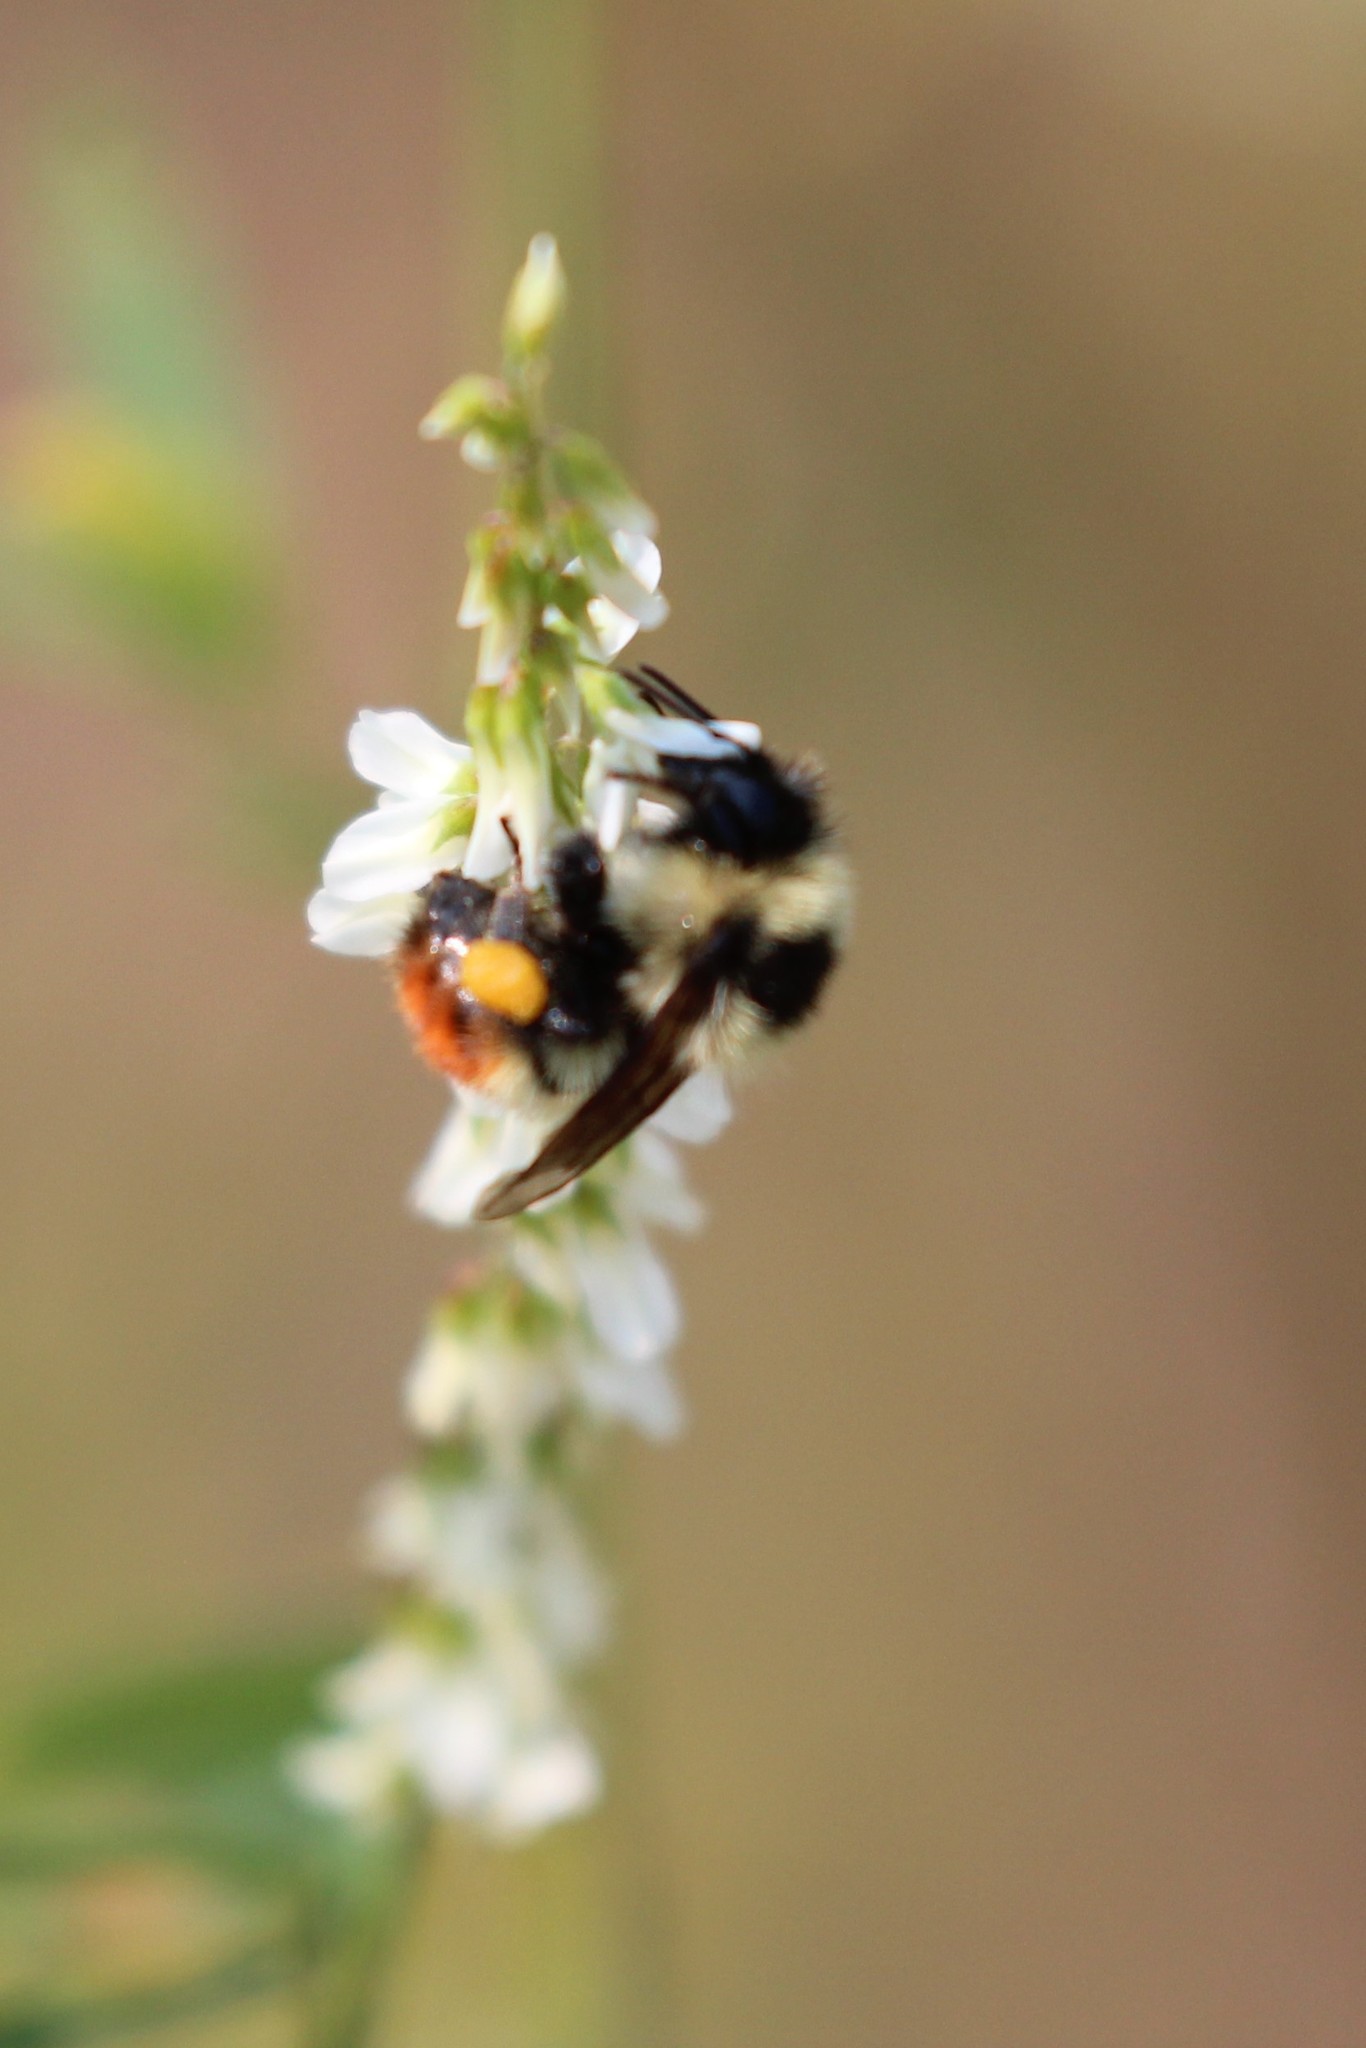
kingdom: Animalia
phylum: Arthropoda
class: Insecta
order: Hymenoptera
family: Apidae
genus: Bombus
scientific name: Bombus rufocinctus
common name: Red-belted bumble bee
